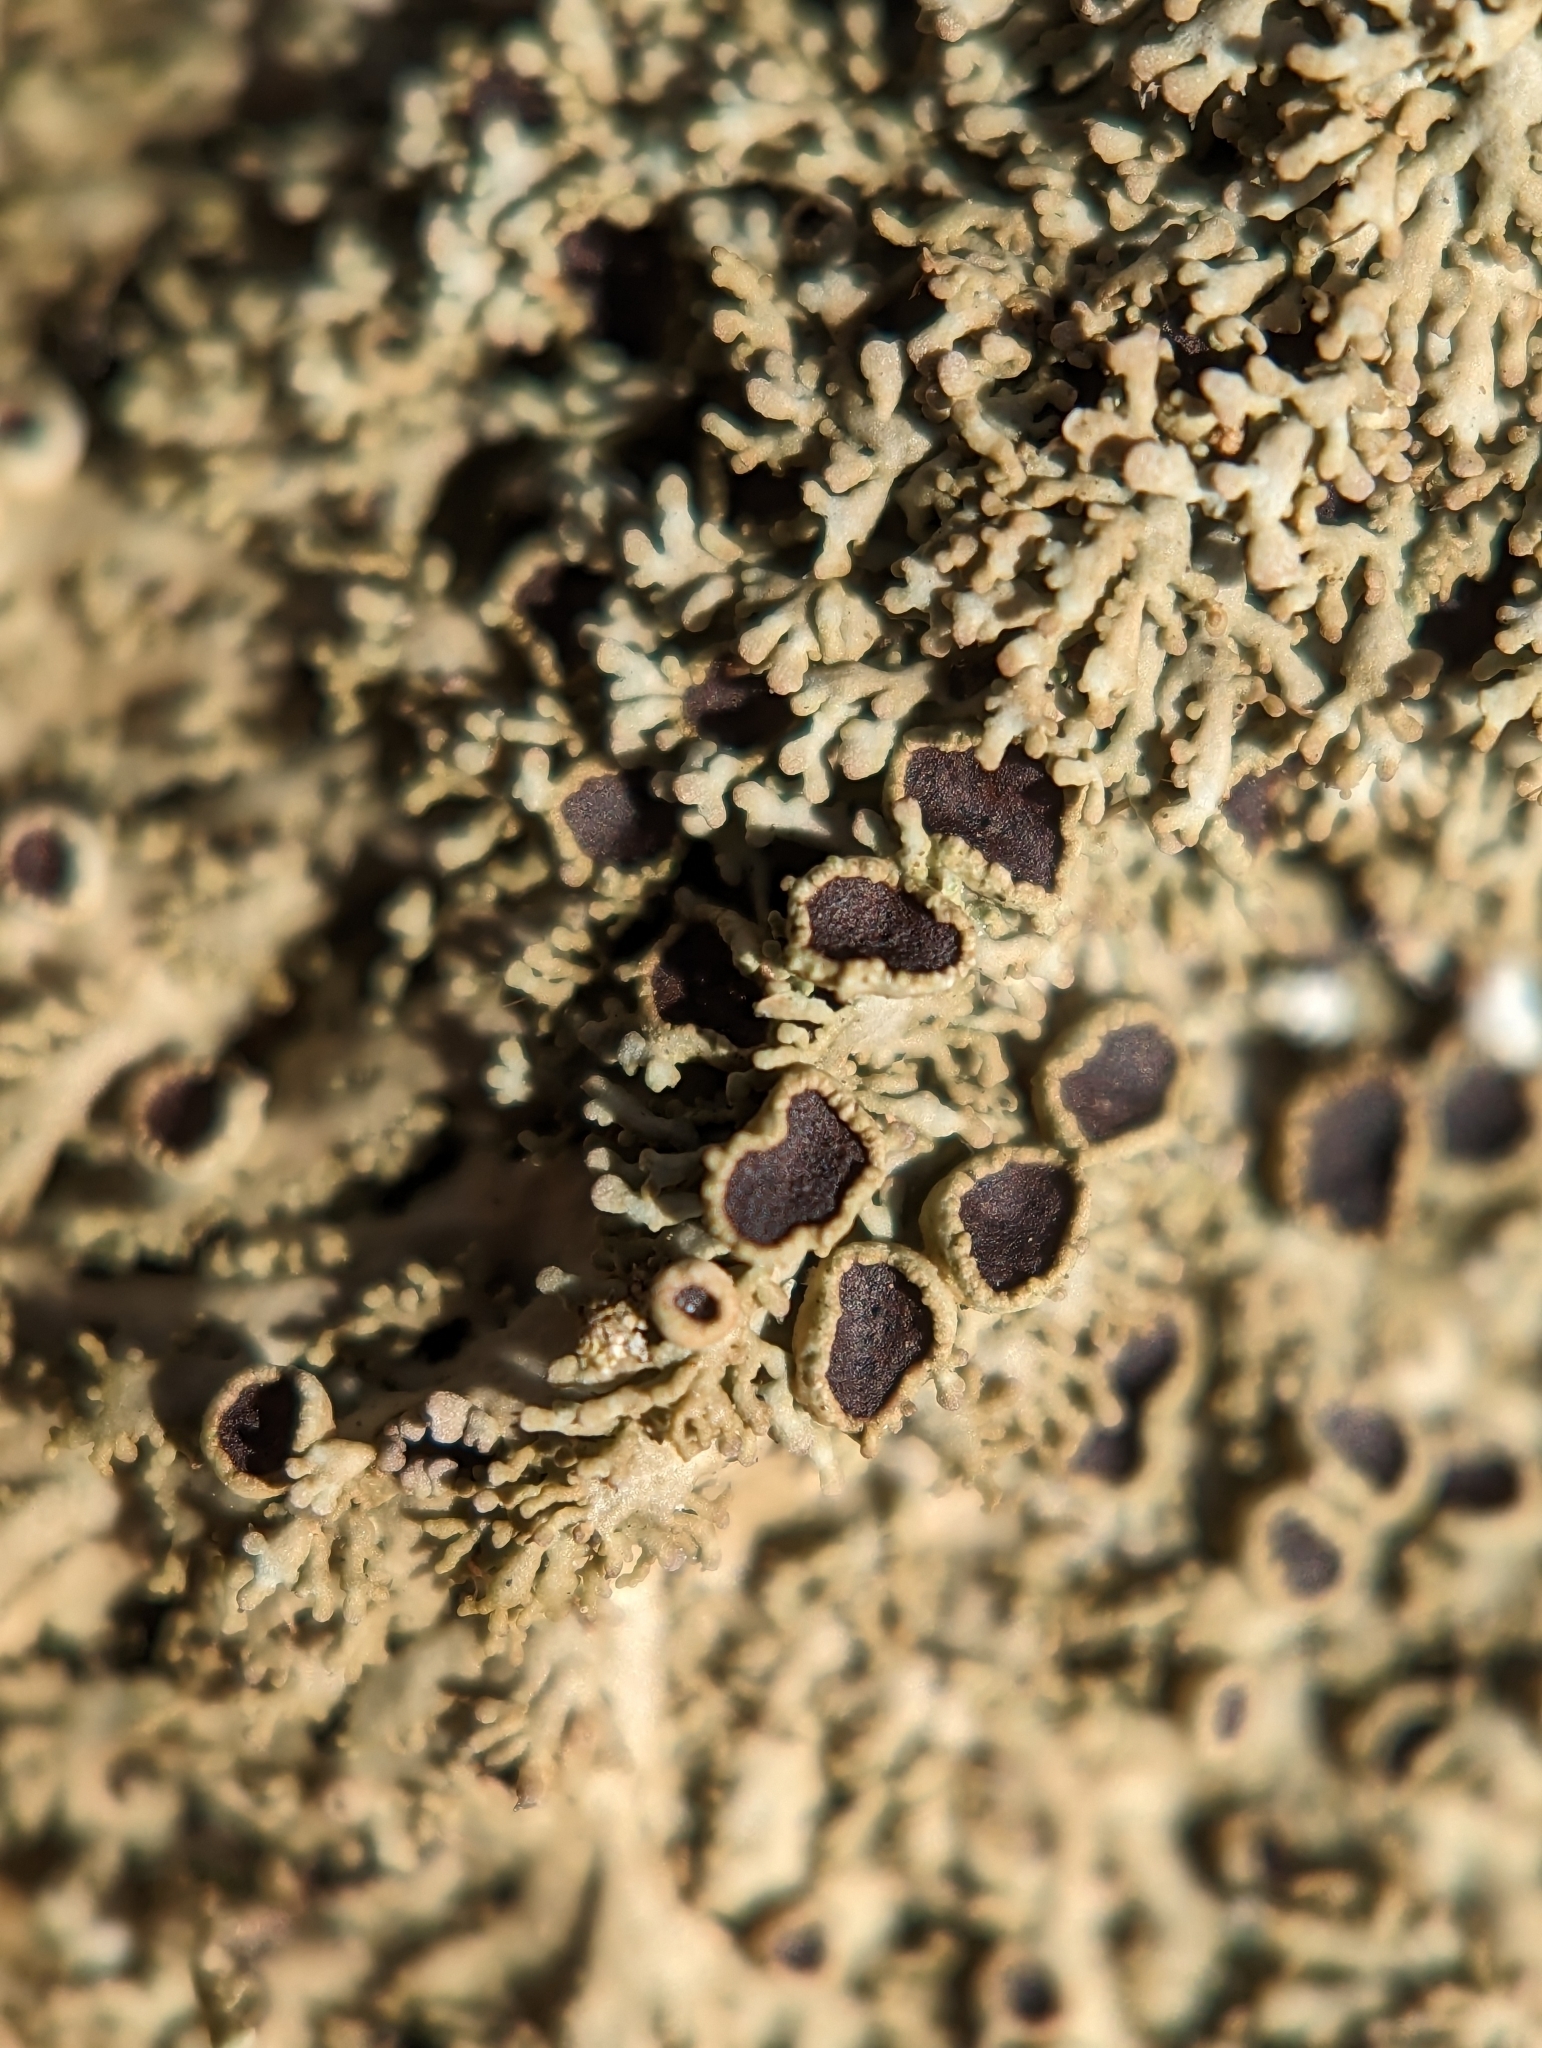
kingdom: Fungi
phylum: Ascomycota
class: Lecanoromycetes
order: Caliciales
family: Physciaceae
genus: Kurokawia
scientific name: Kurokawia palmulata
